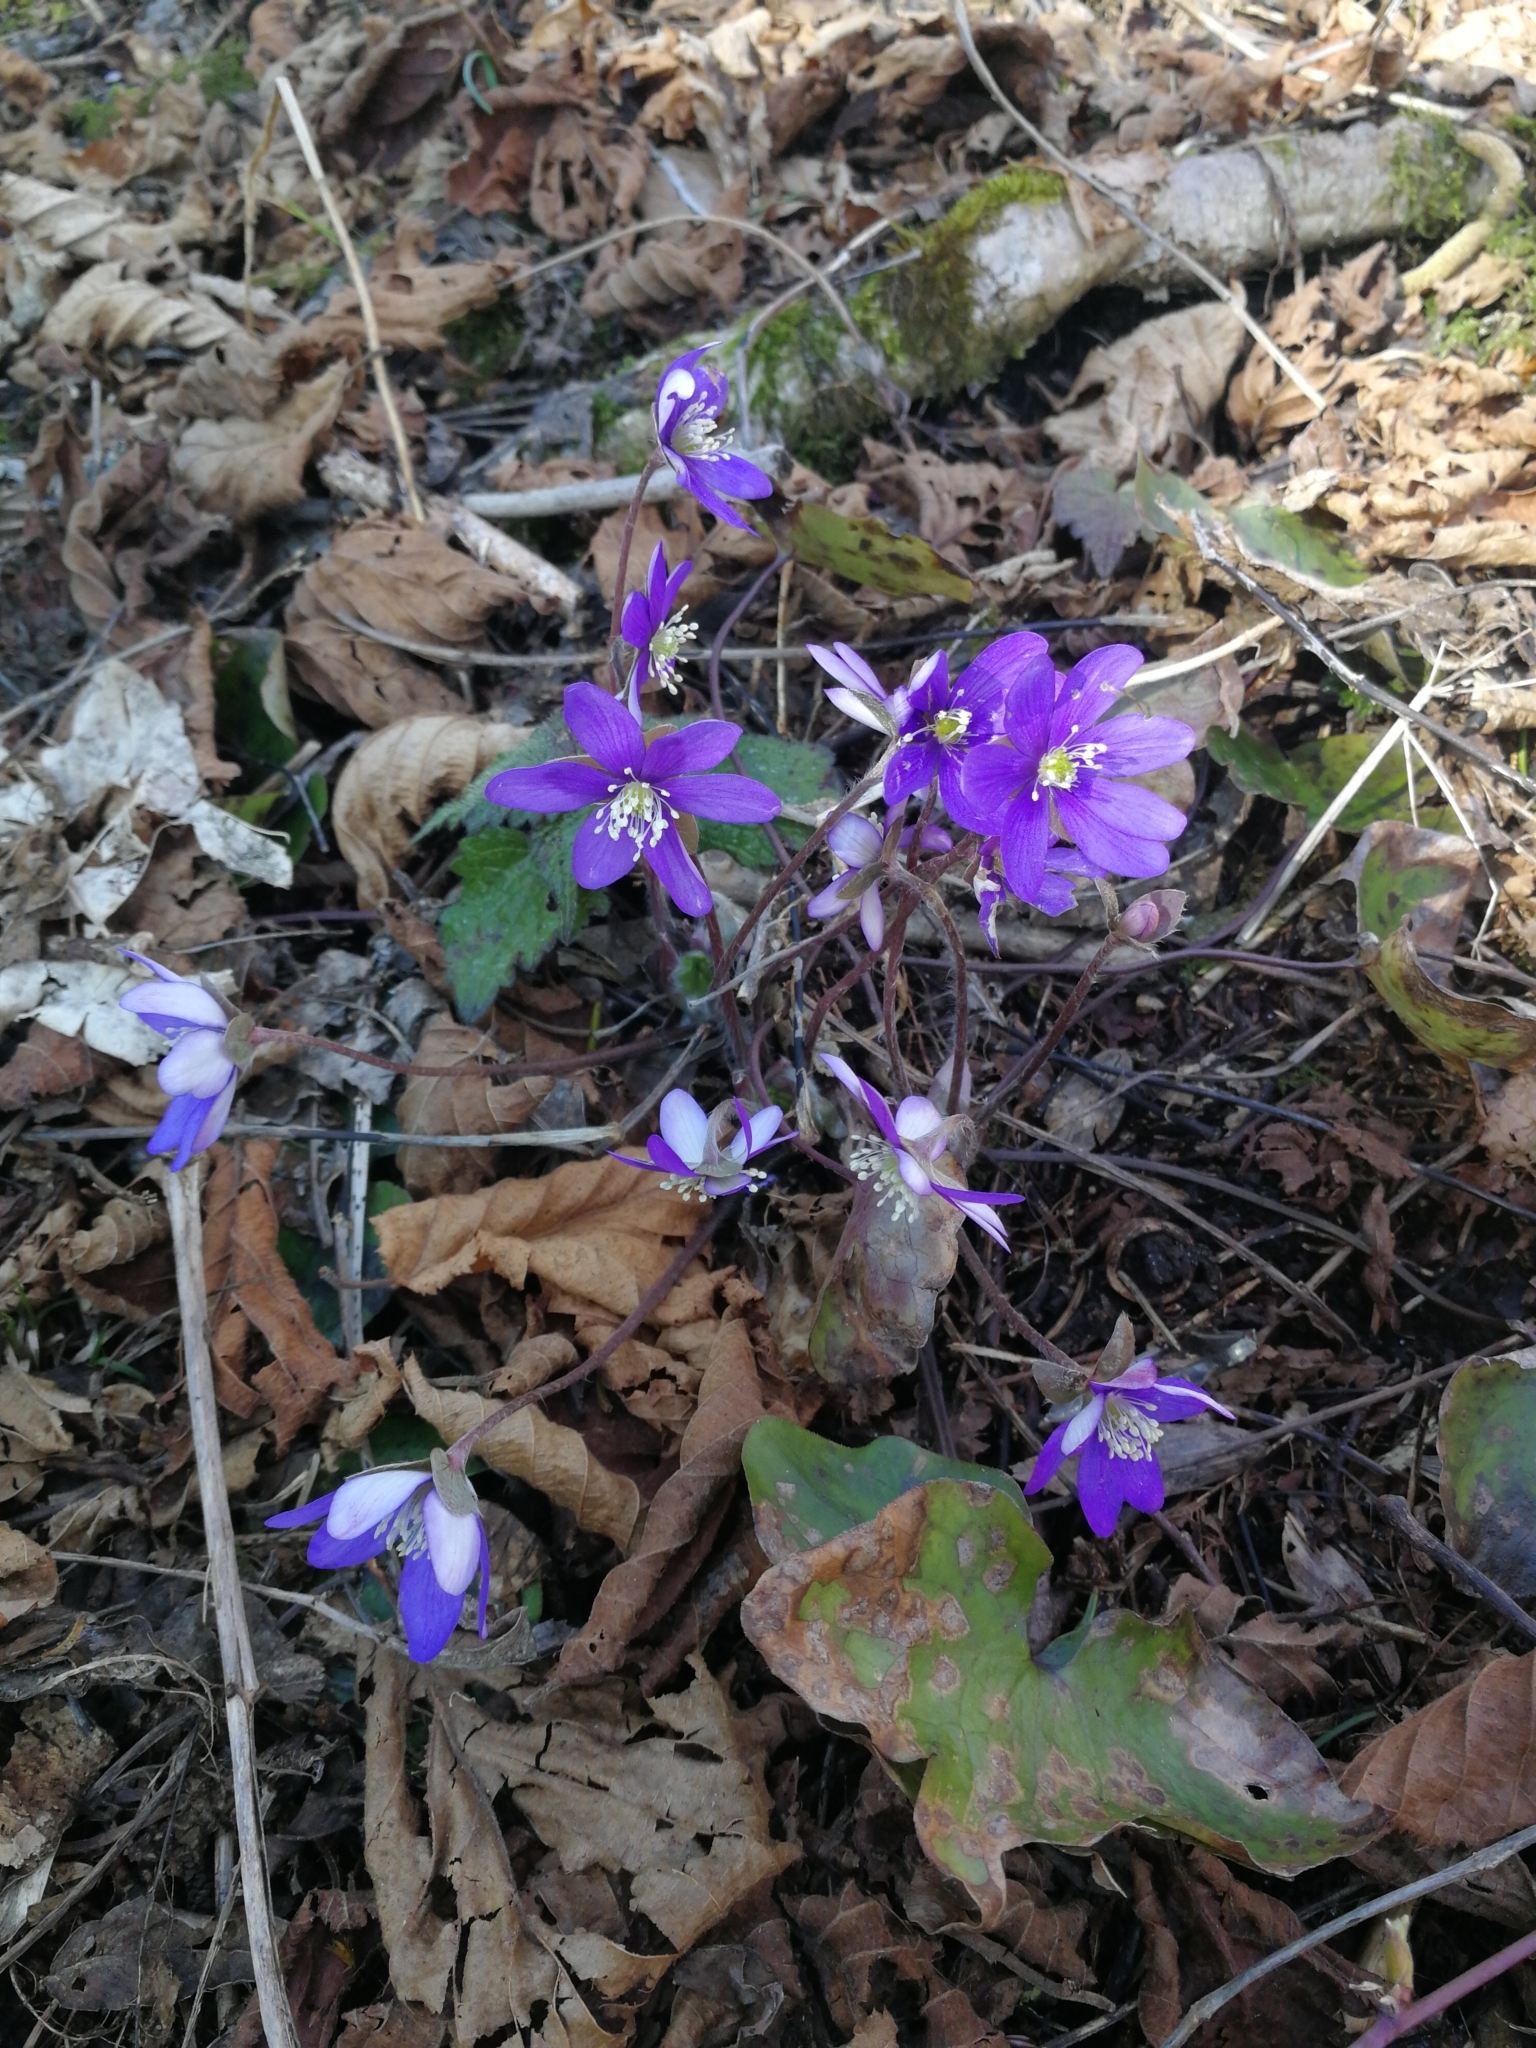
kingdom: Plantae
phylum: Tracheophyta
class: Magnoliopsida
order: Ranunculales
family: Ranunculaceae
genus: Hepatica
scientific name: Hepatica nobilis
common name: Liverleaf
